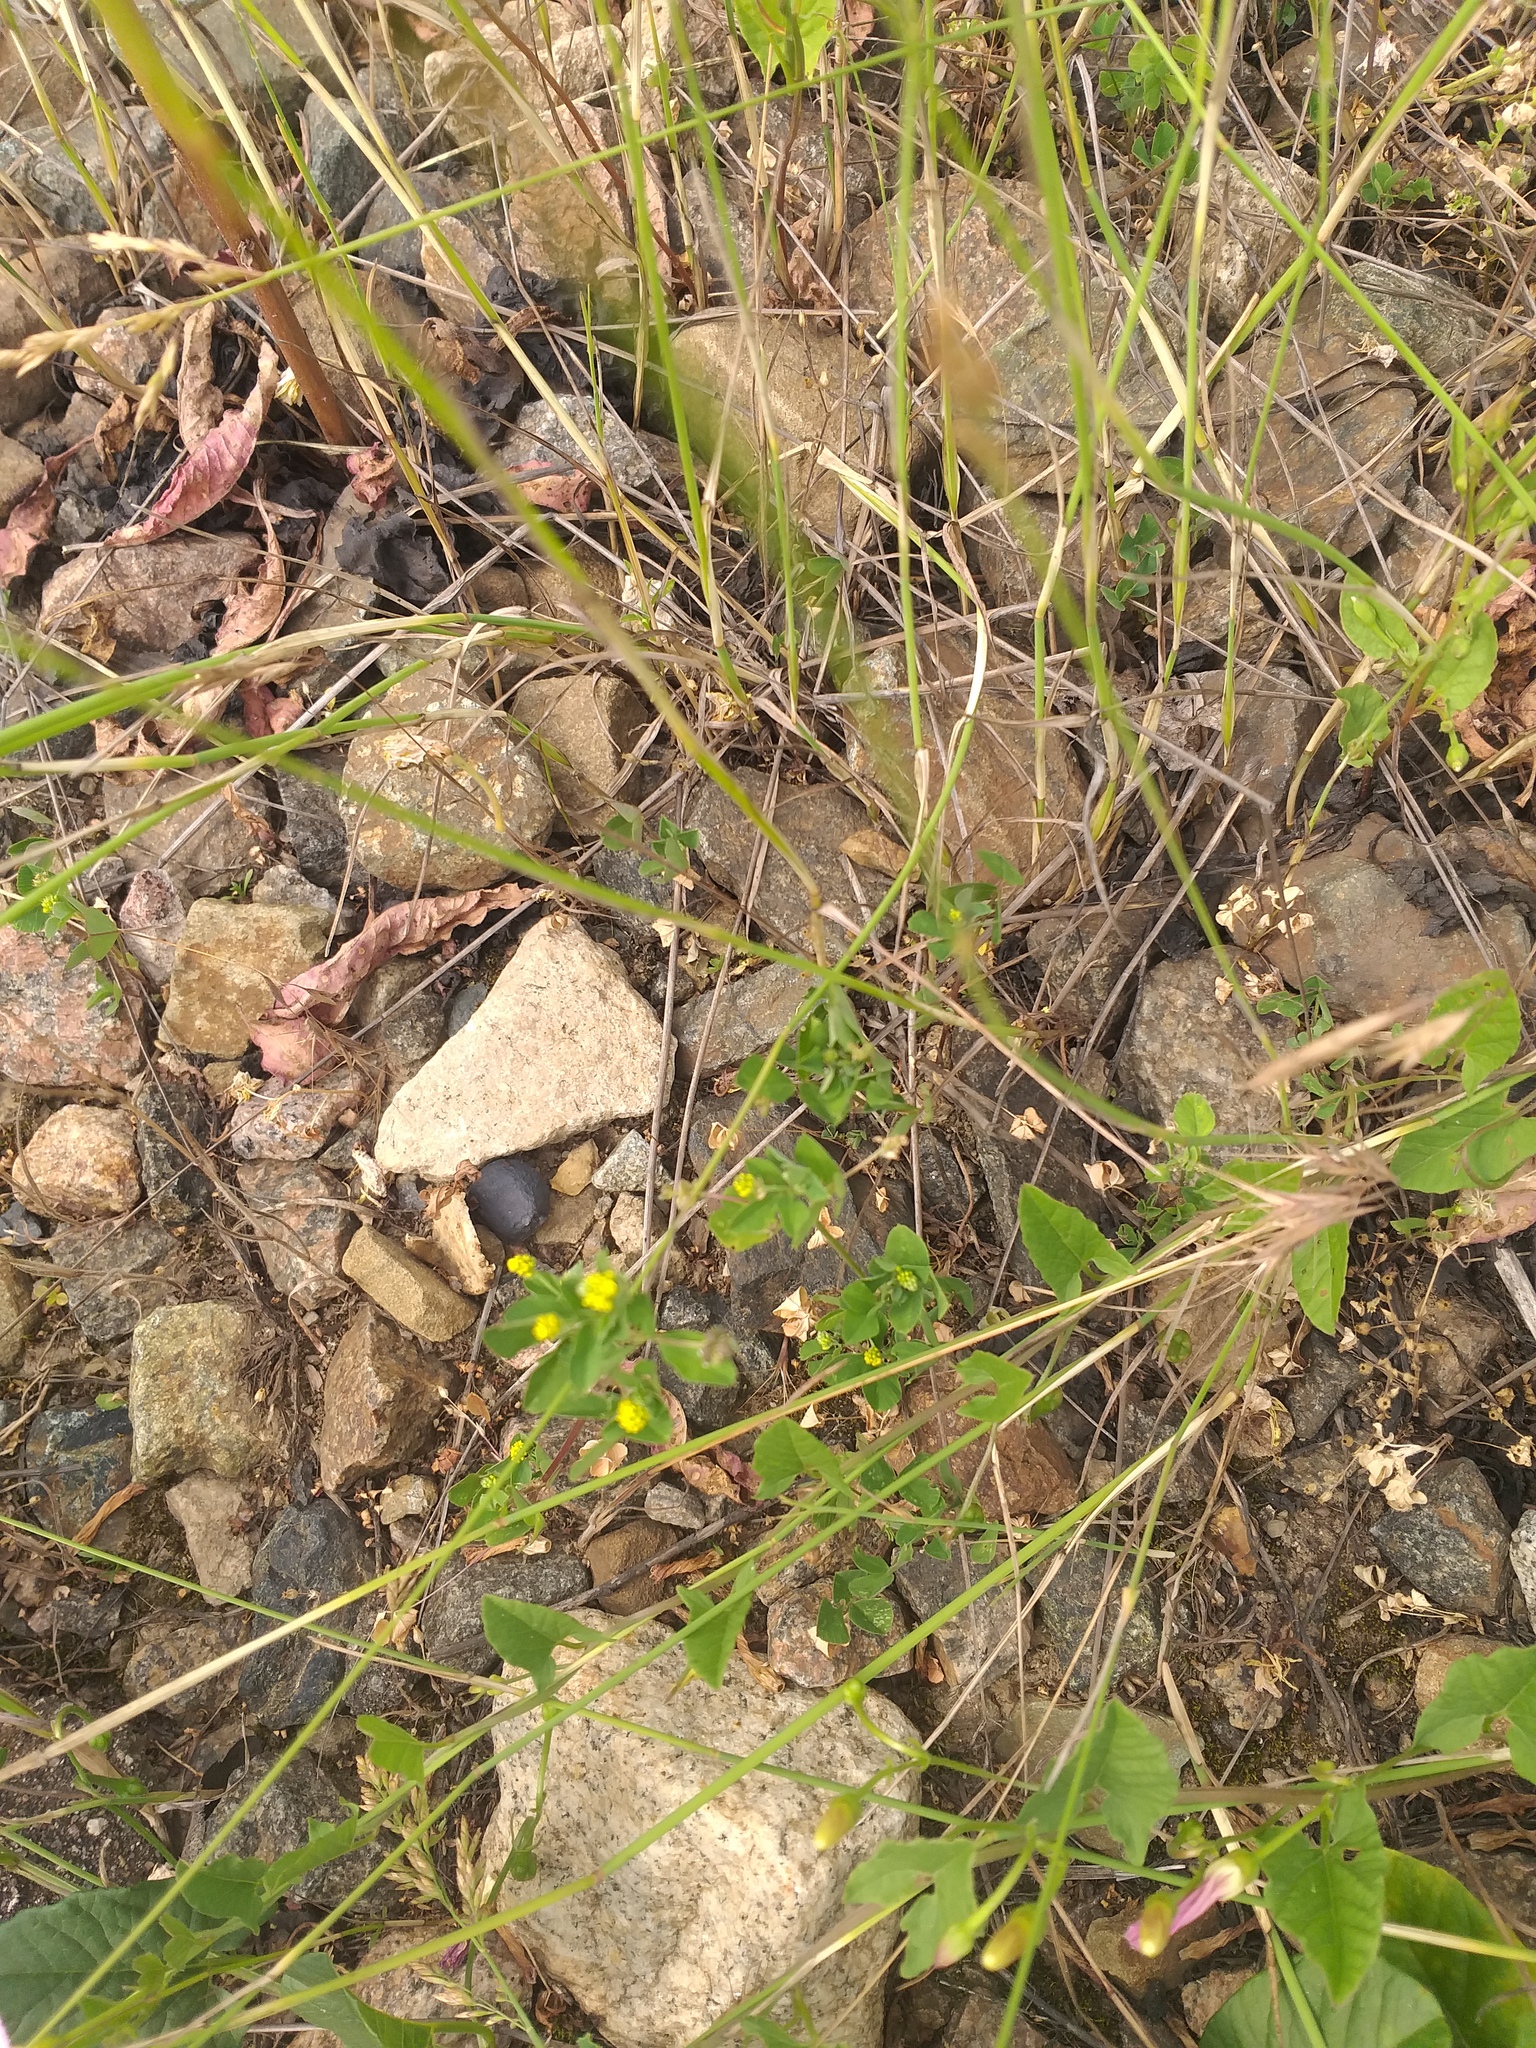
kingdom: Plantae
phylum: Tracheophyta
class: Magnoliopsida
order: Fabales
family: Fabaceae
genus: Medicago
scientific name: Medicago lupulina
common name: Black medick
